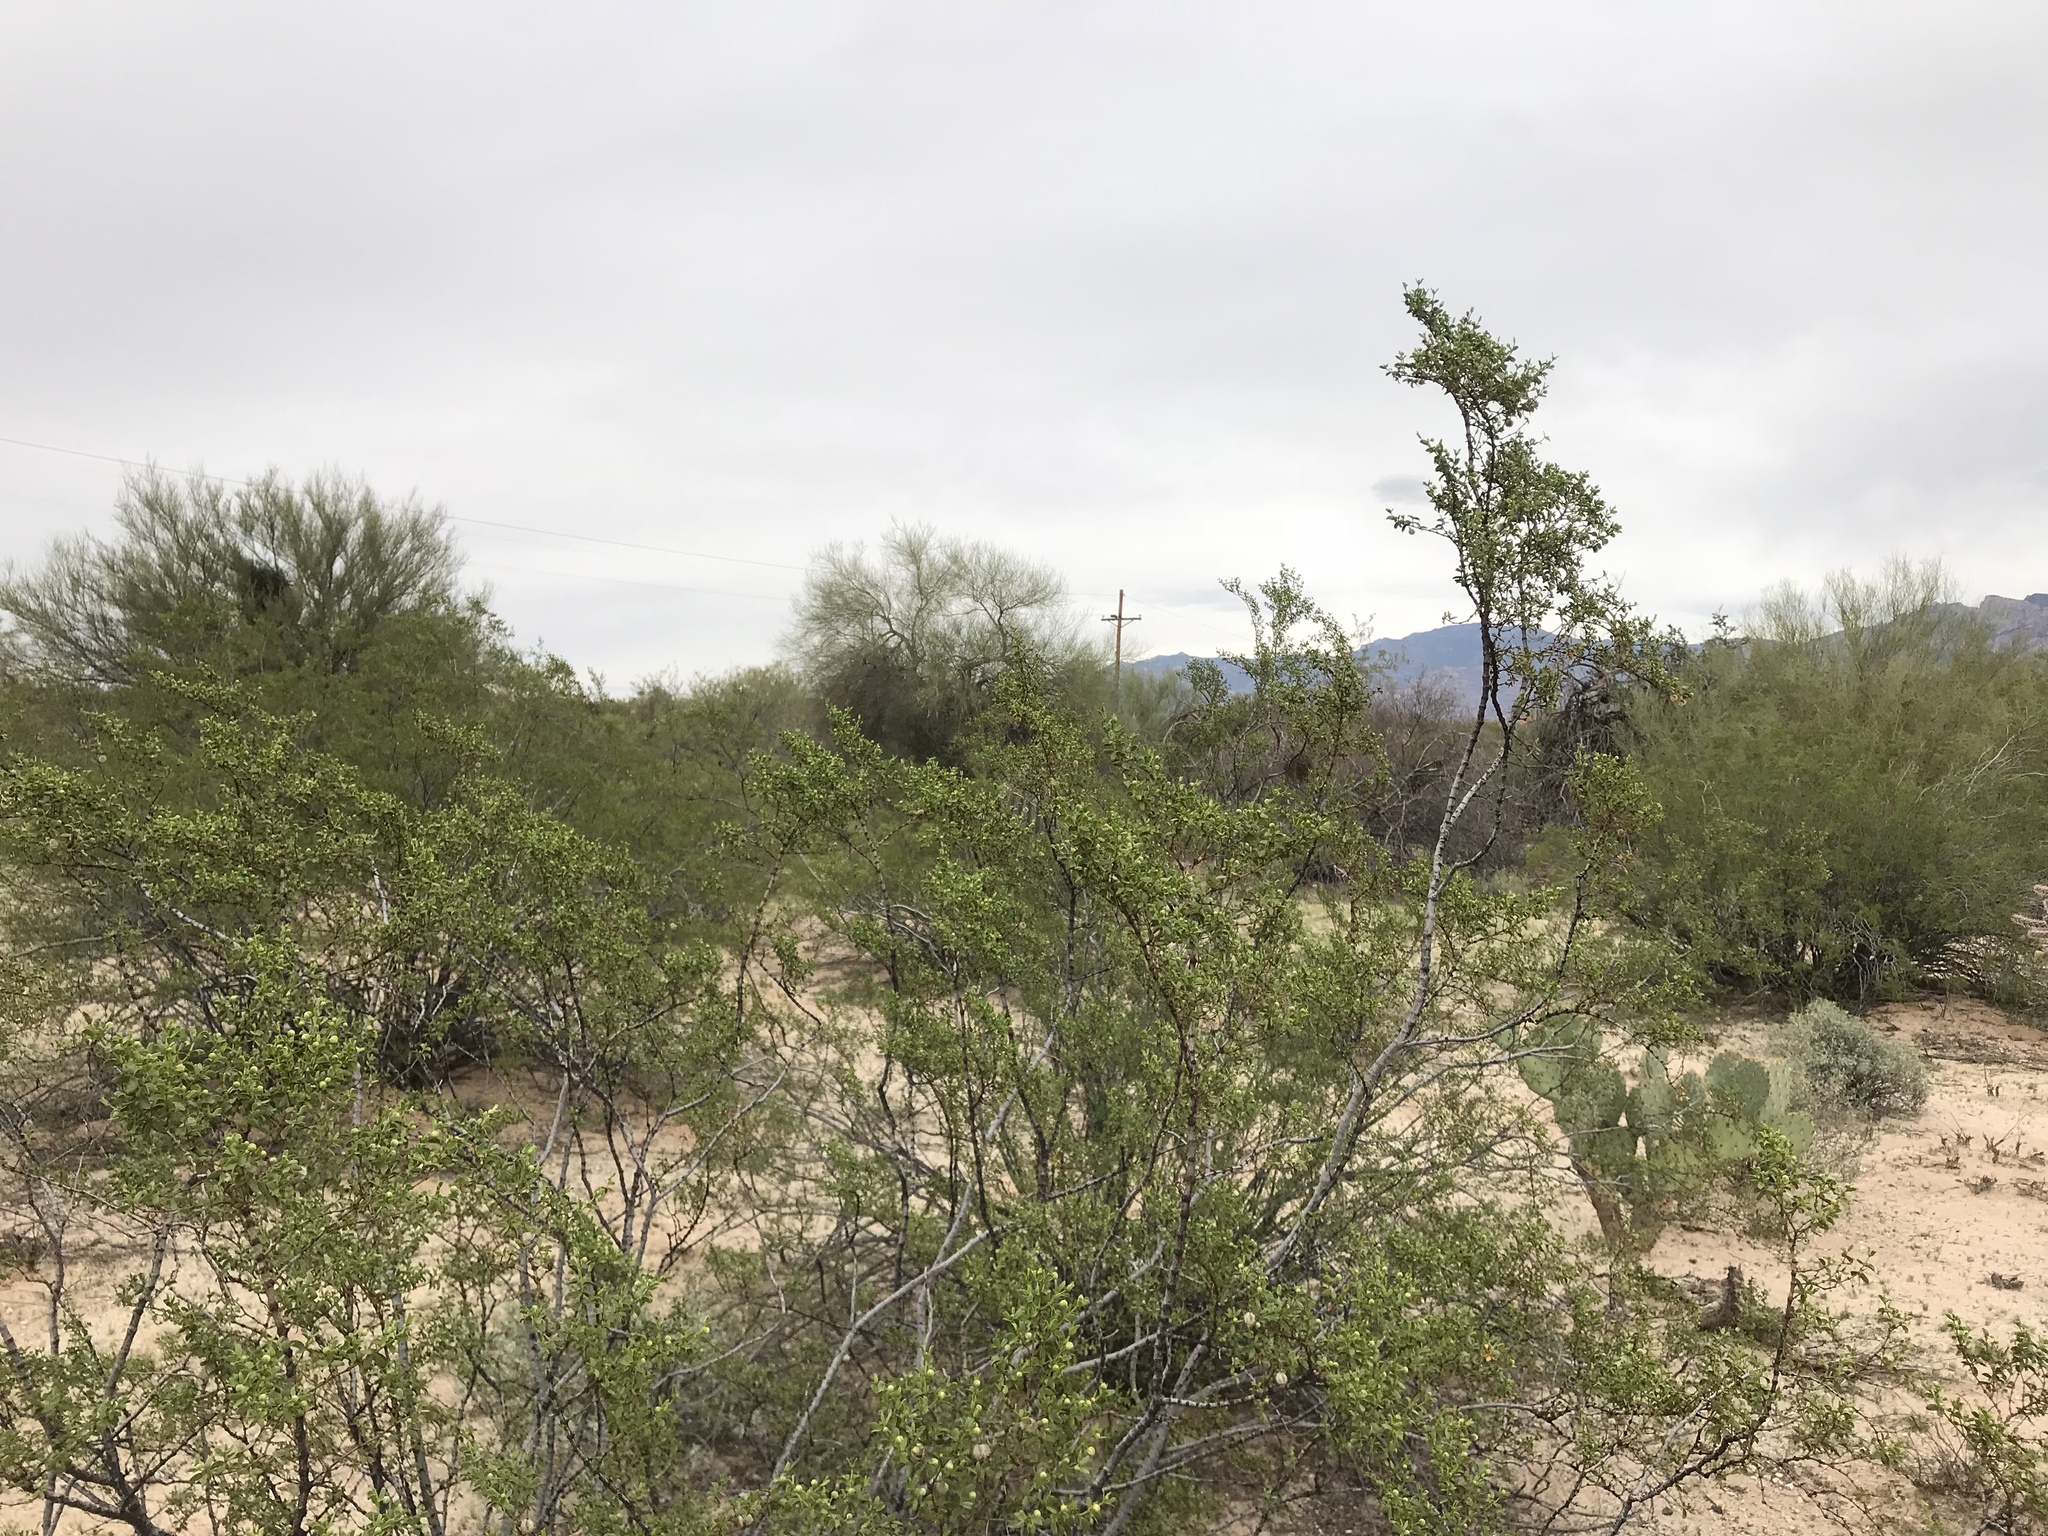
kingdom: Plantae
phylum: Tracheophyta
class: Magnoliopsida
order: Zygophyllales
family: Zygophyllaceae
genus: Larrea
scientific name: Larrea tridentata
